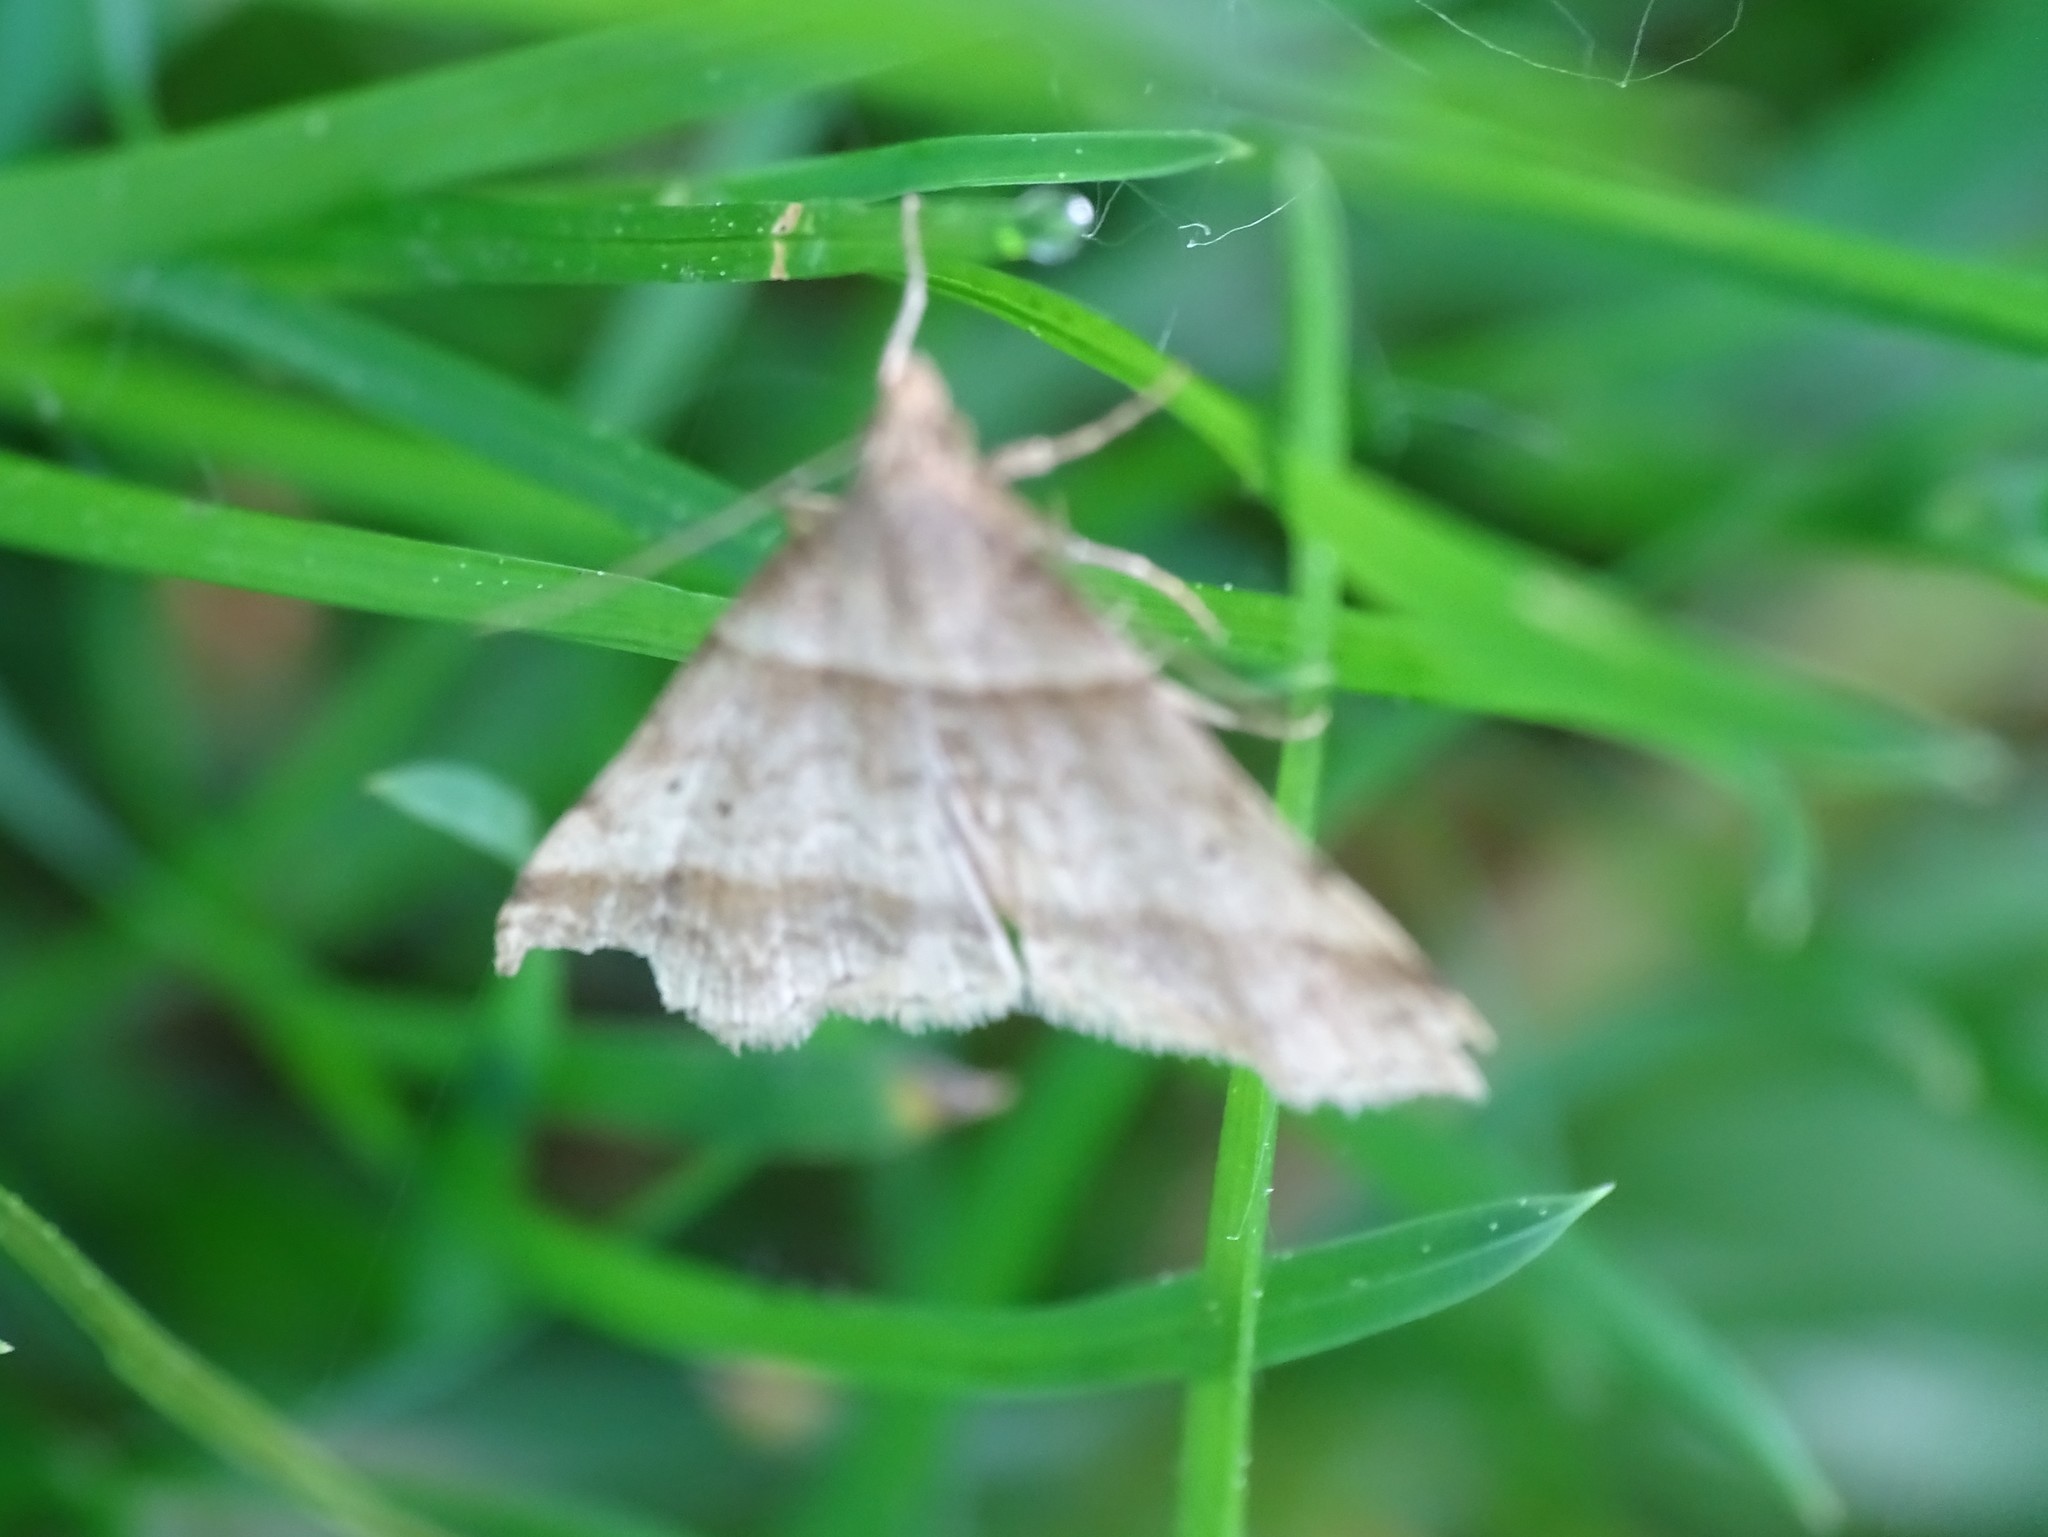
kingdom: Animalia
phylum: Arthropoda
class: Insecta
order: Lepidoptera
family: Erebidae
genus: Phaeolita
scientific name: Phaeolita pyramusalis
